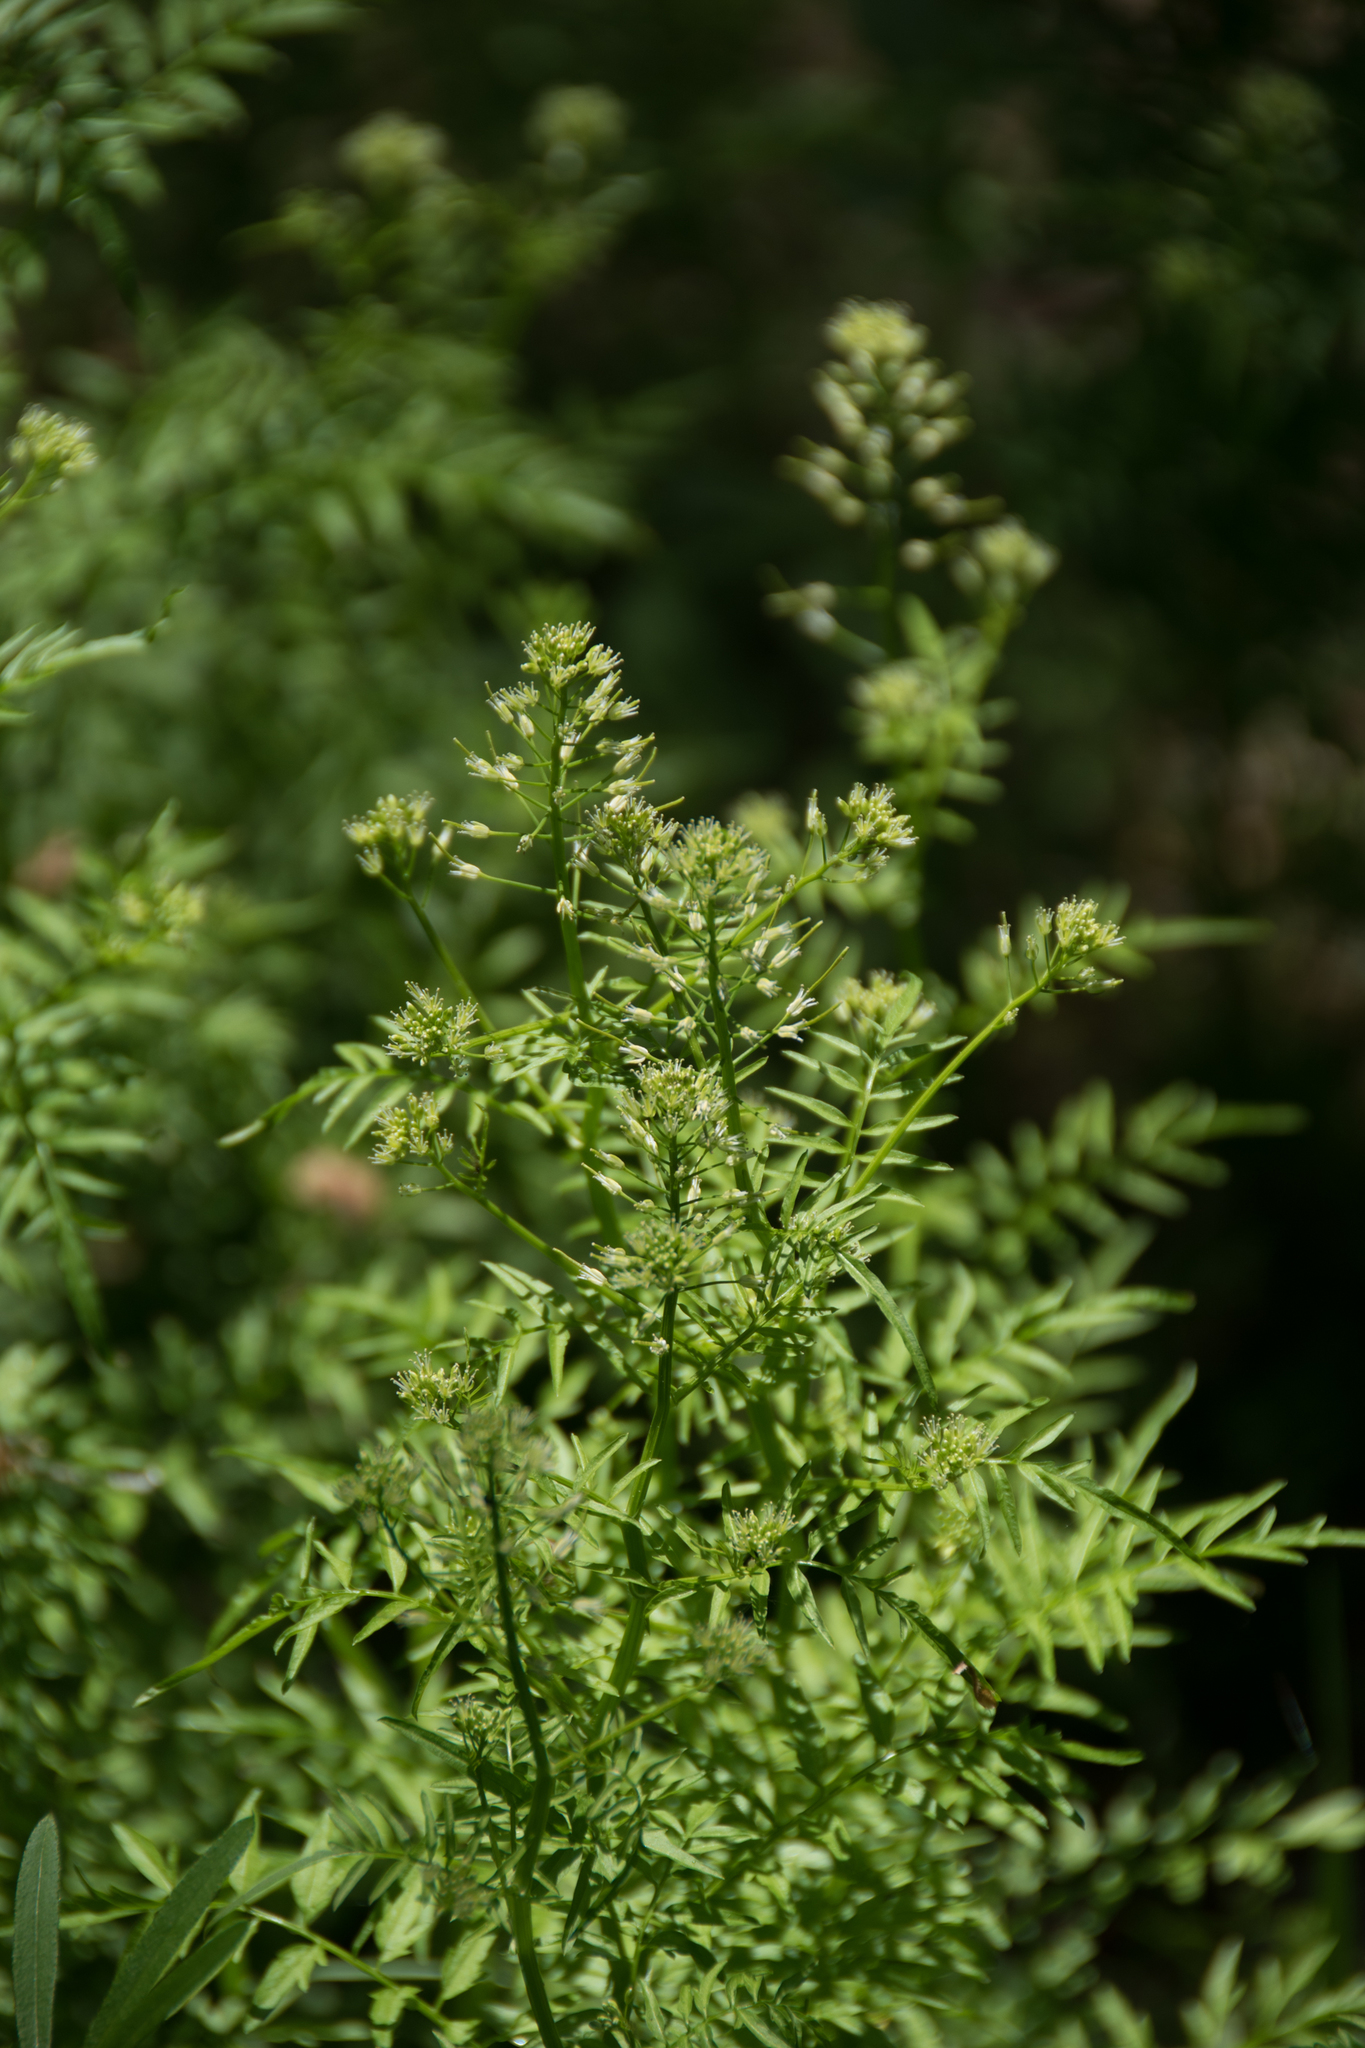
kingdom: Plantae
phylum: Tracheophyta
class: Magnoliopsida
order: Brassicales
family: Brassicaceae
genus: Cardamine
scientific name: Cardamine impatiens
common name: Narrow-leaved bitter-cress
